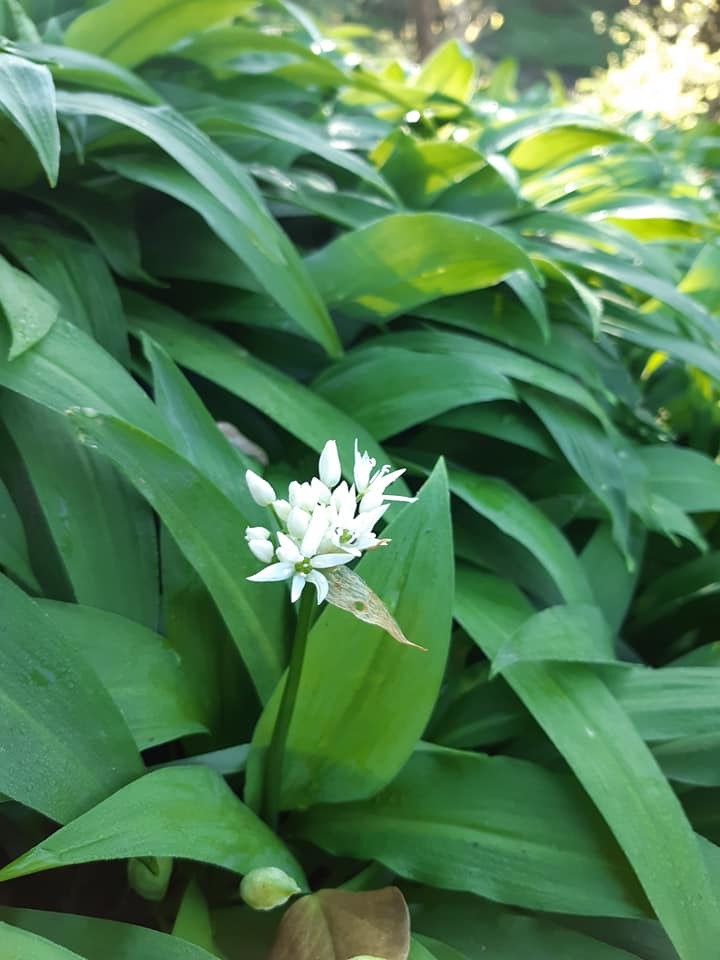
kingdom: Plantae
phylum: Tracheophyta
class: Liliopsida
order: Asparagales
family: Amaryllidaceae
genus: Allium
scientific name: Allium ursinum
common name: Ramsons
